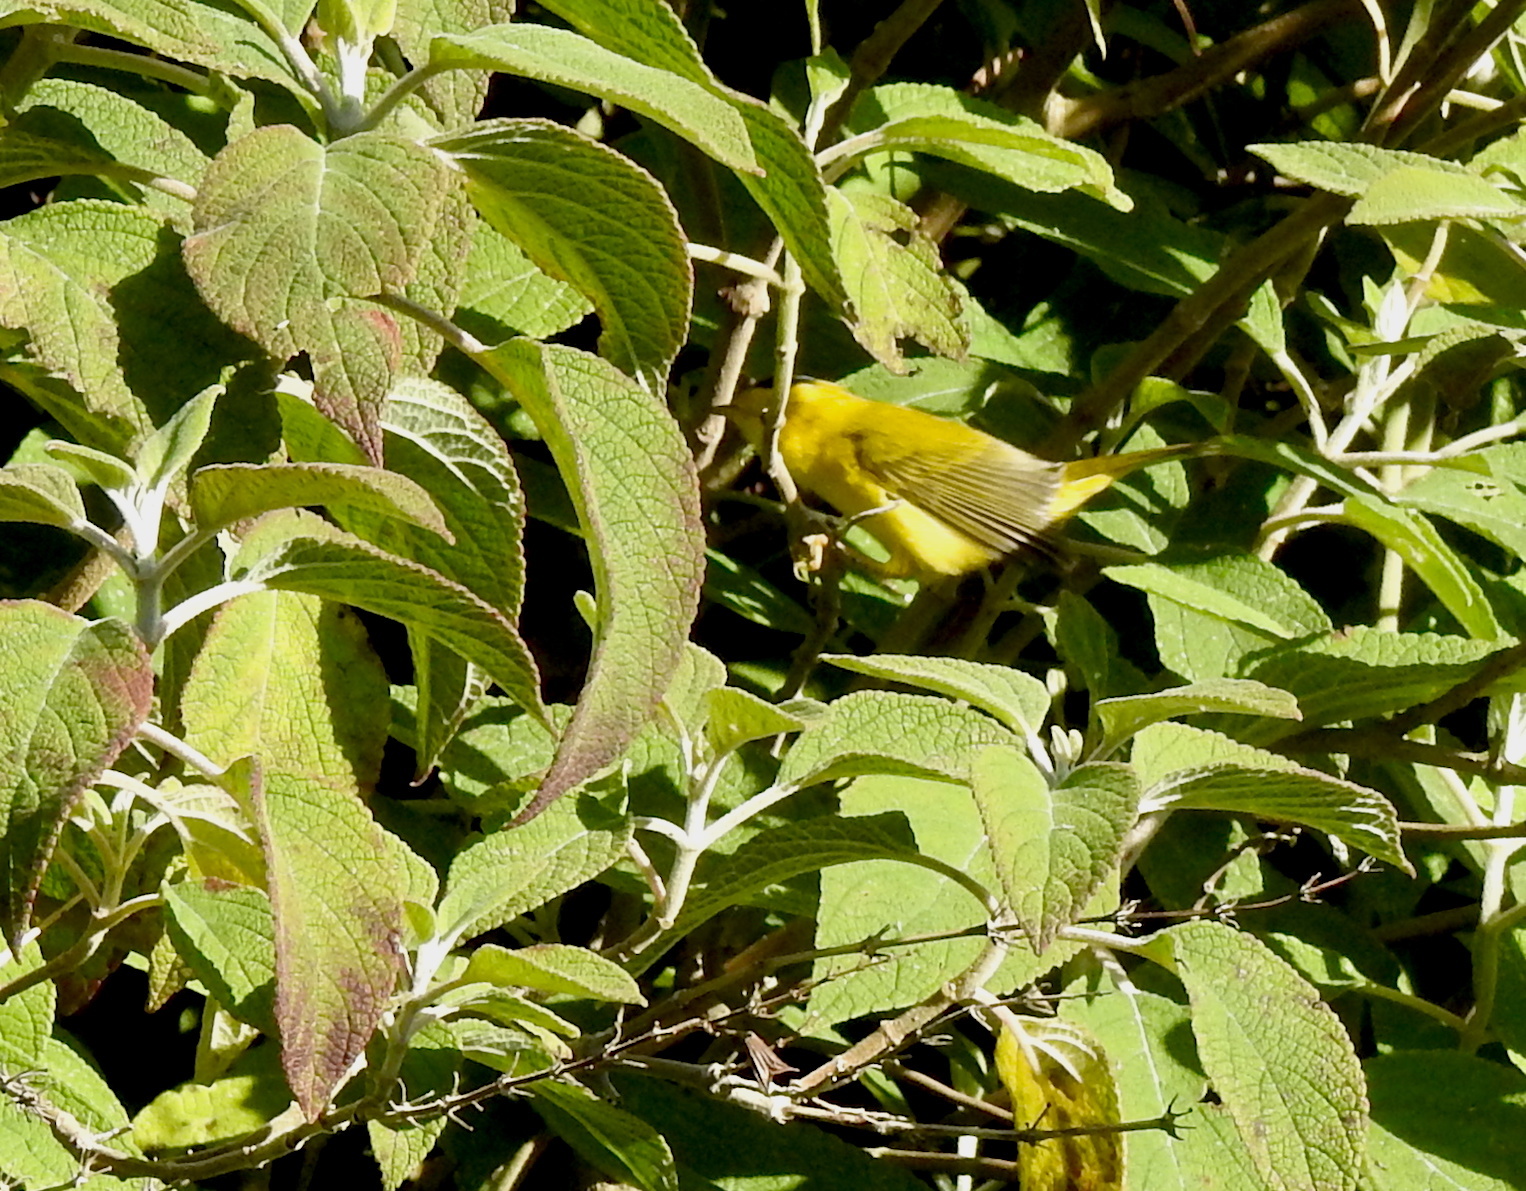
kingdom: Animalia
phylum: Chordata
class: Aves
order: Passeriformes
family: Parulidae
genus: Cardellina
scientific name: Cardellina pusilla
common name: Wilson's warbler
